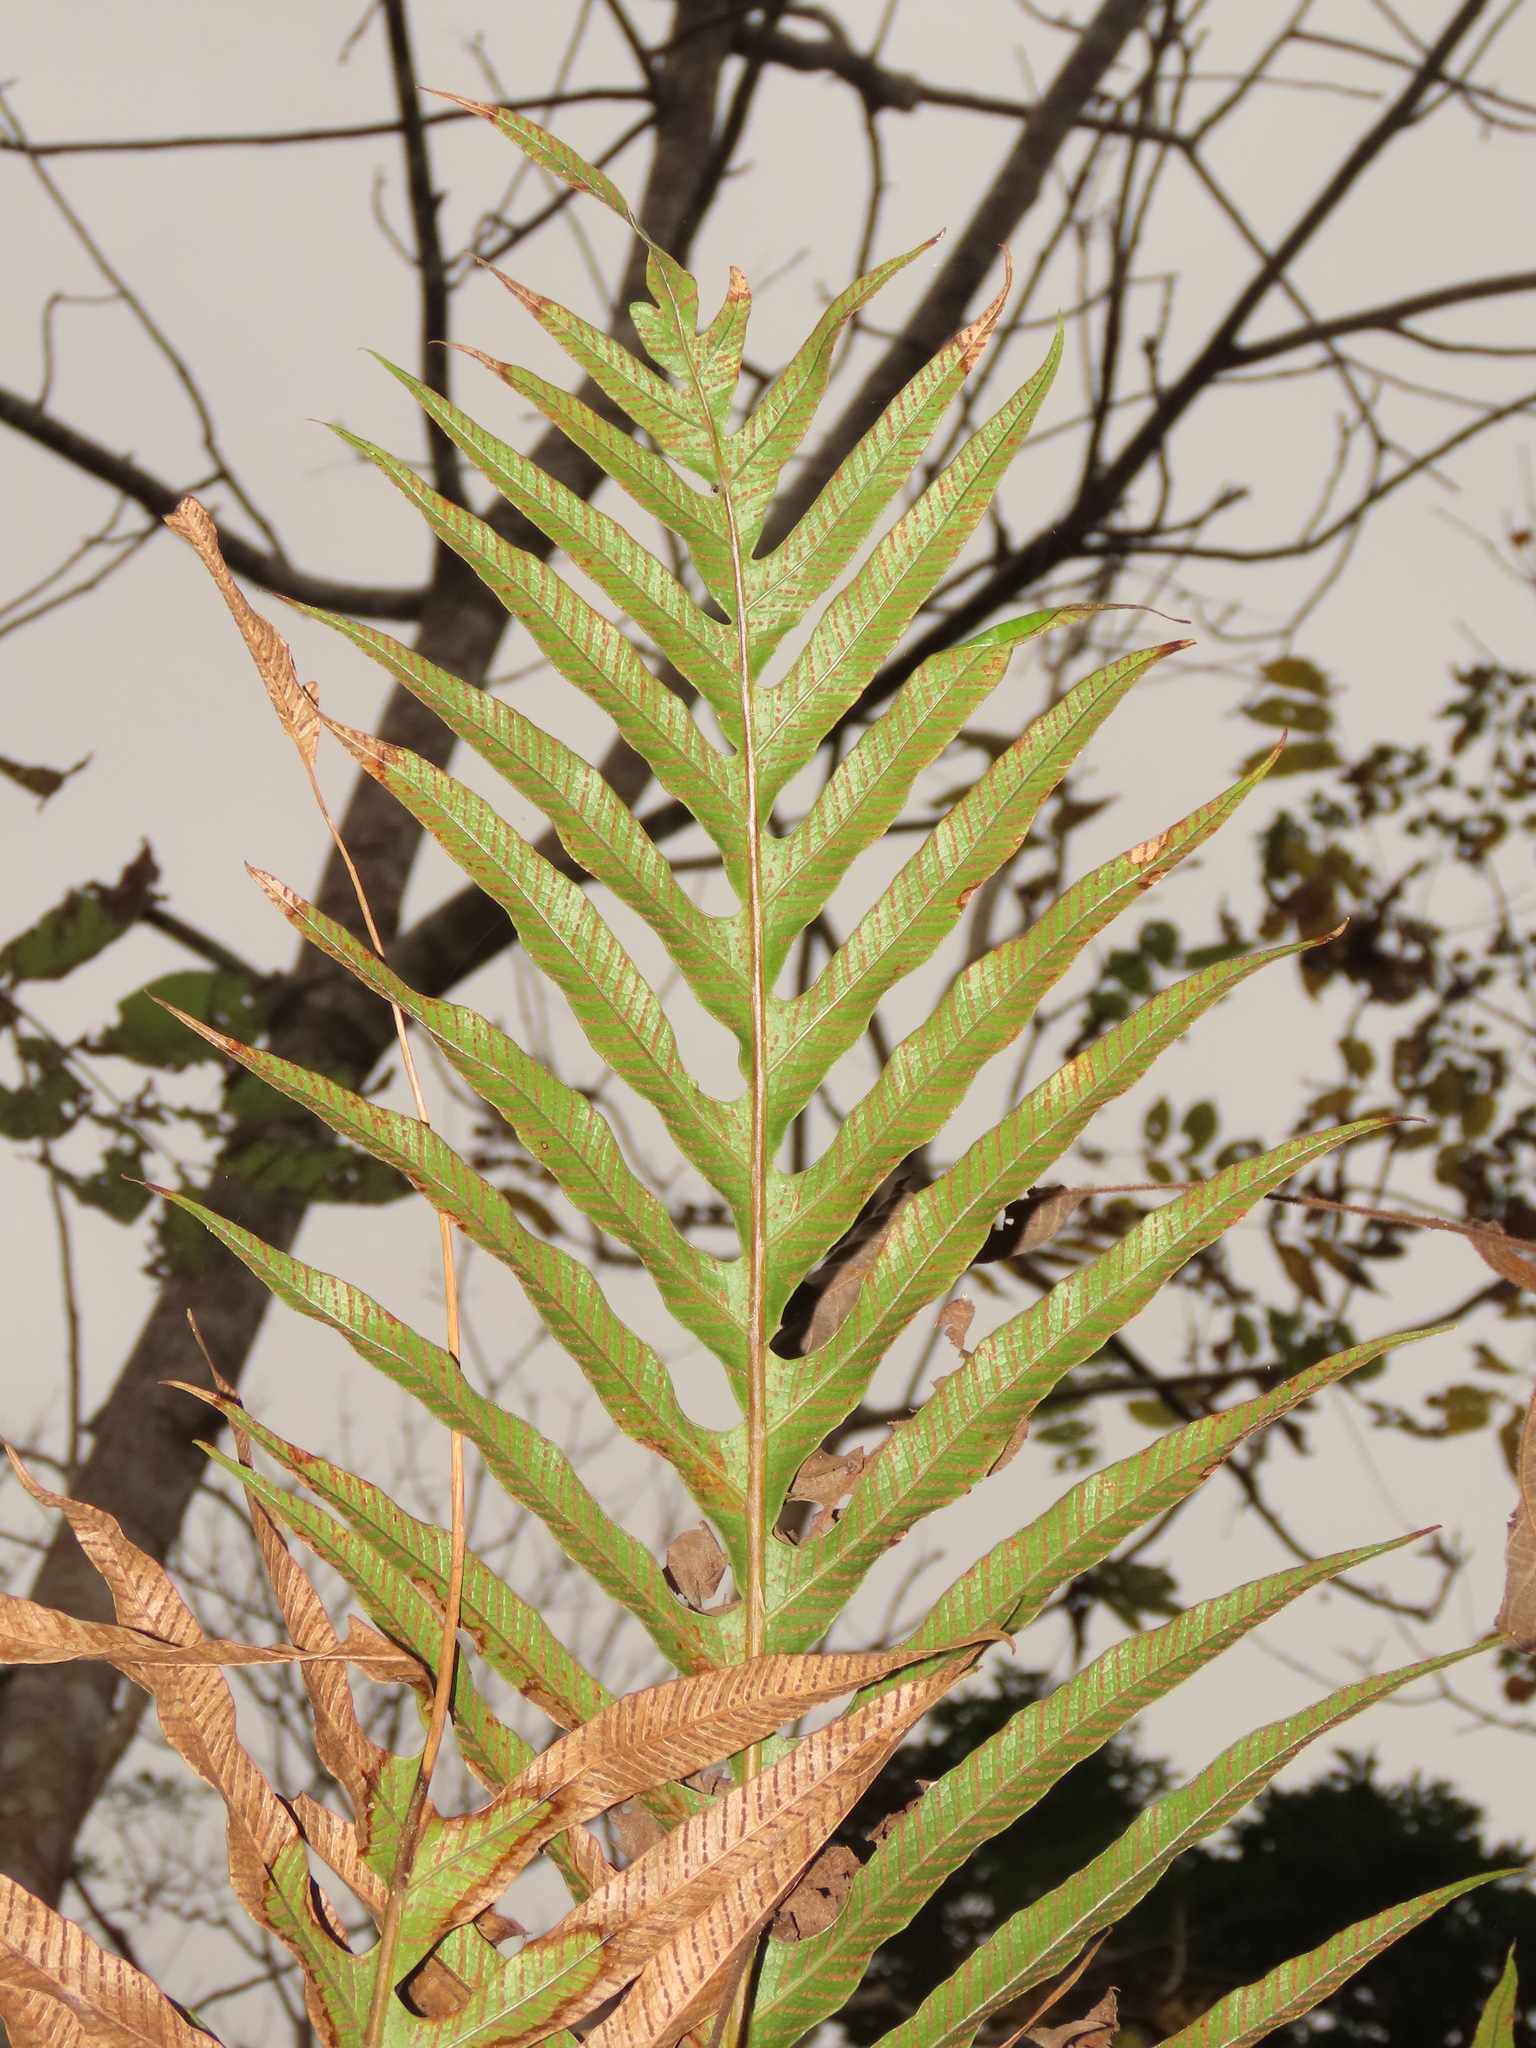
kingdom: Plantae
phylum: Tracheophyta
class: Polypodiopsida
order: Polypodiales
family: Polypodiaceae
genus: Drynaria
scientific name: Drynaria coronans
